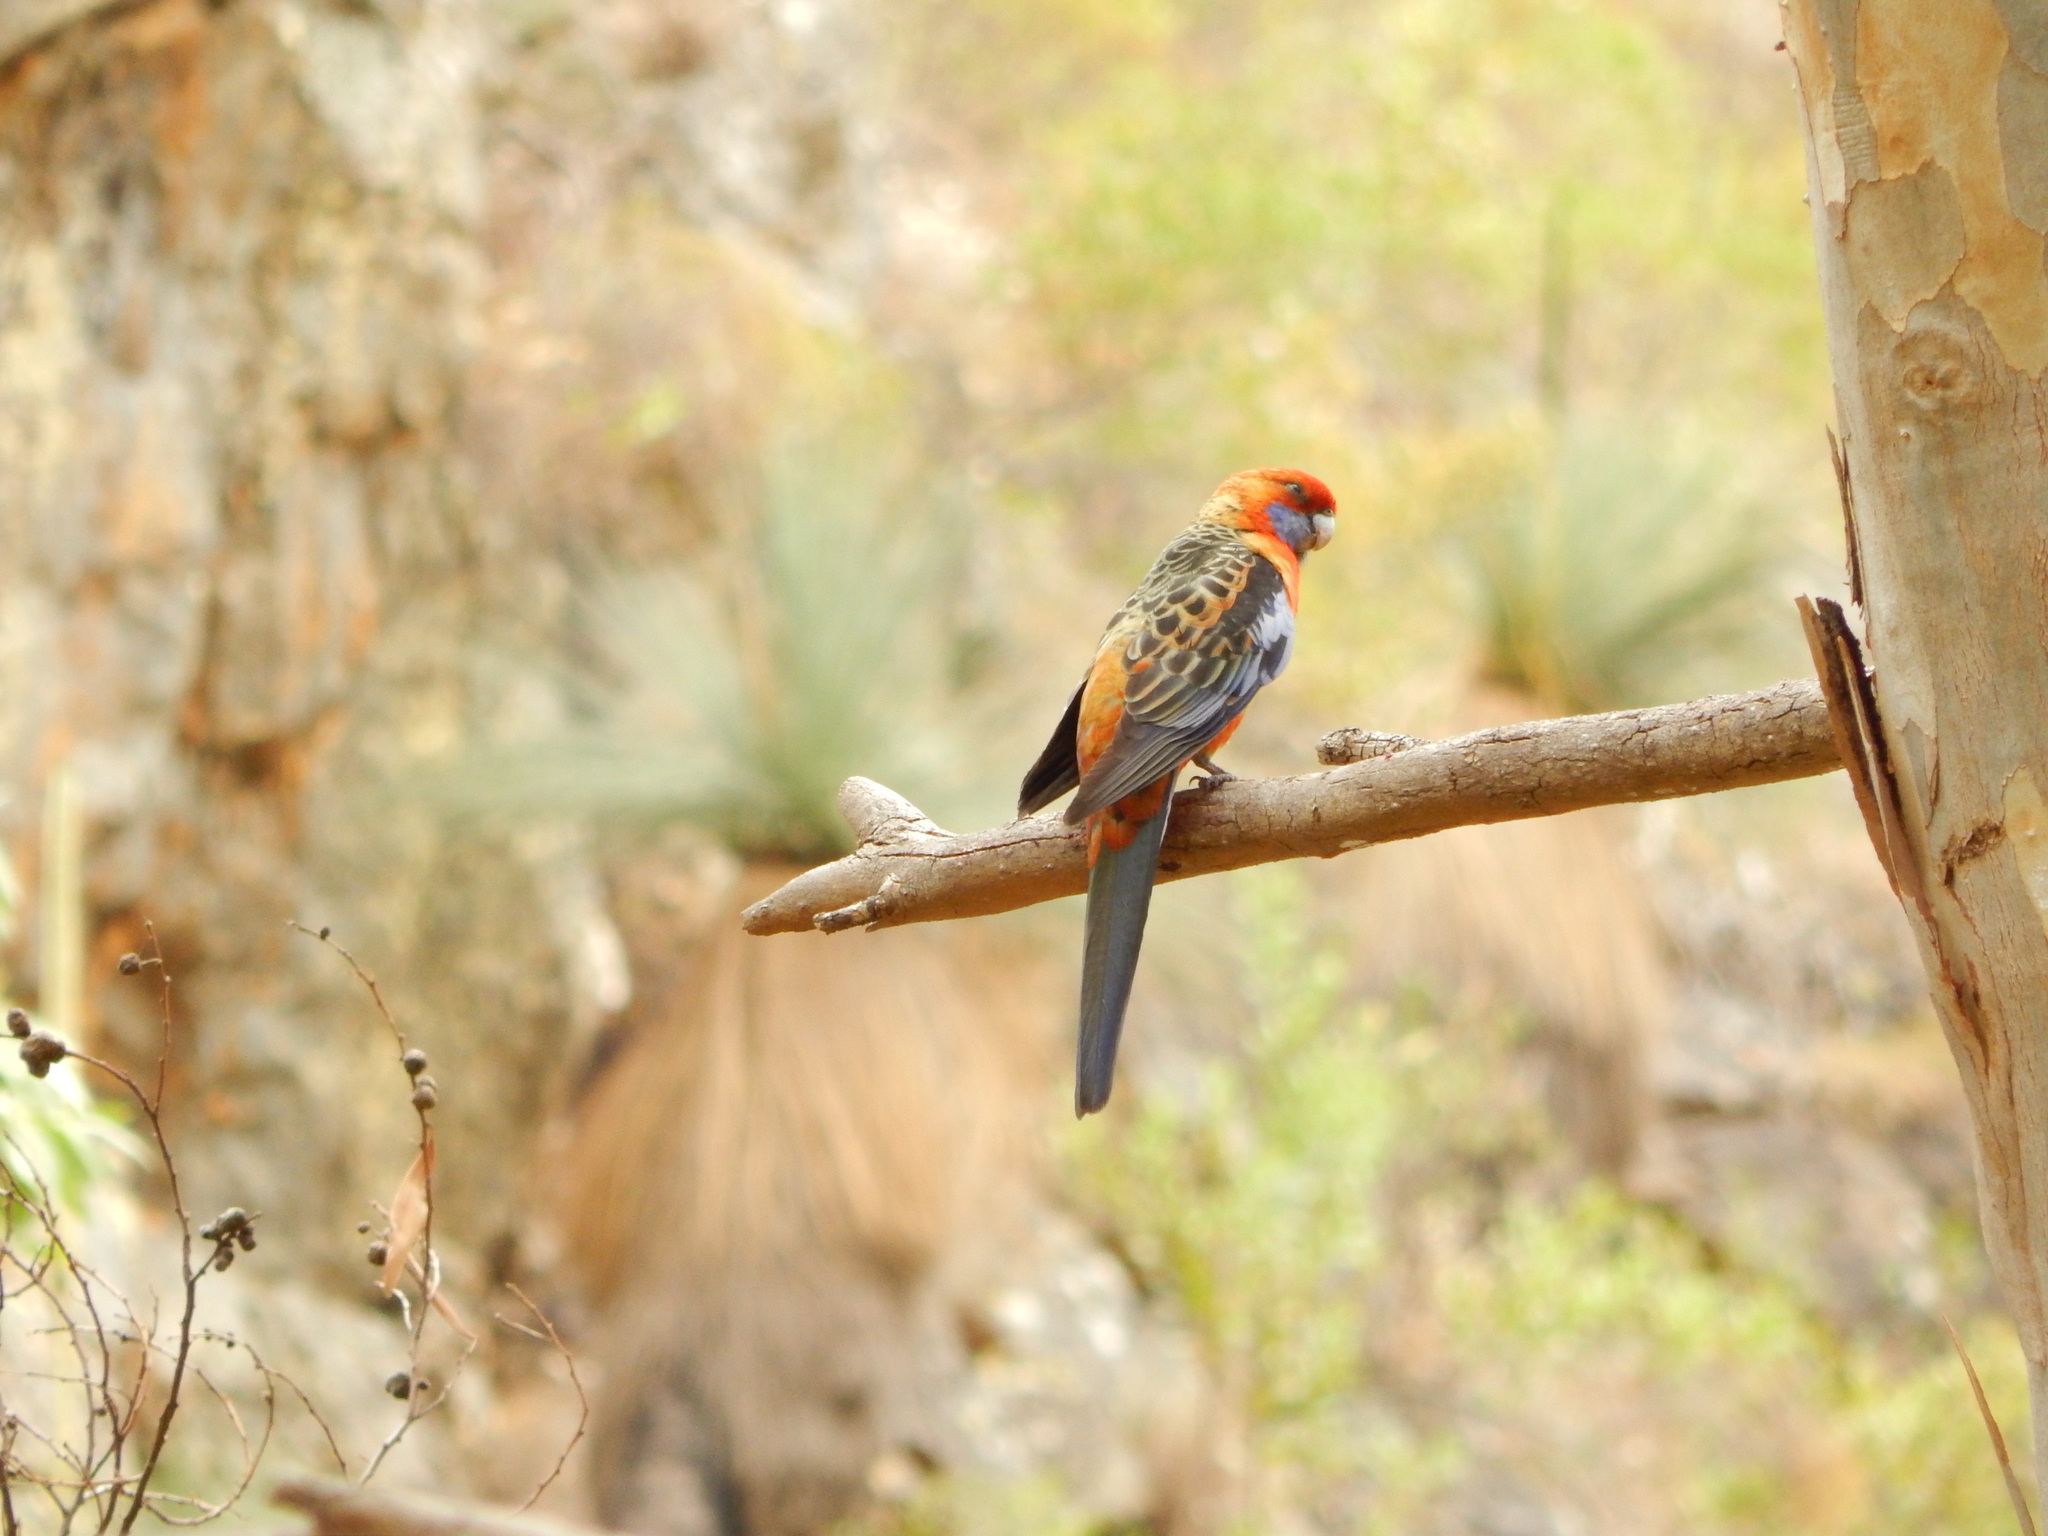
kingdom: Animalia
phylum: Chordata
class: Aves
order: Psittaciformes
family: Psittacidae
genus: Platycercus
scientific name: Platycercus elegans
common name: Crimson rosella
